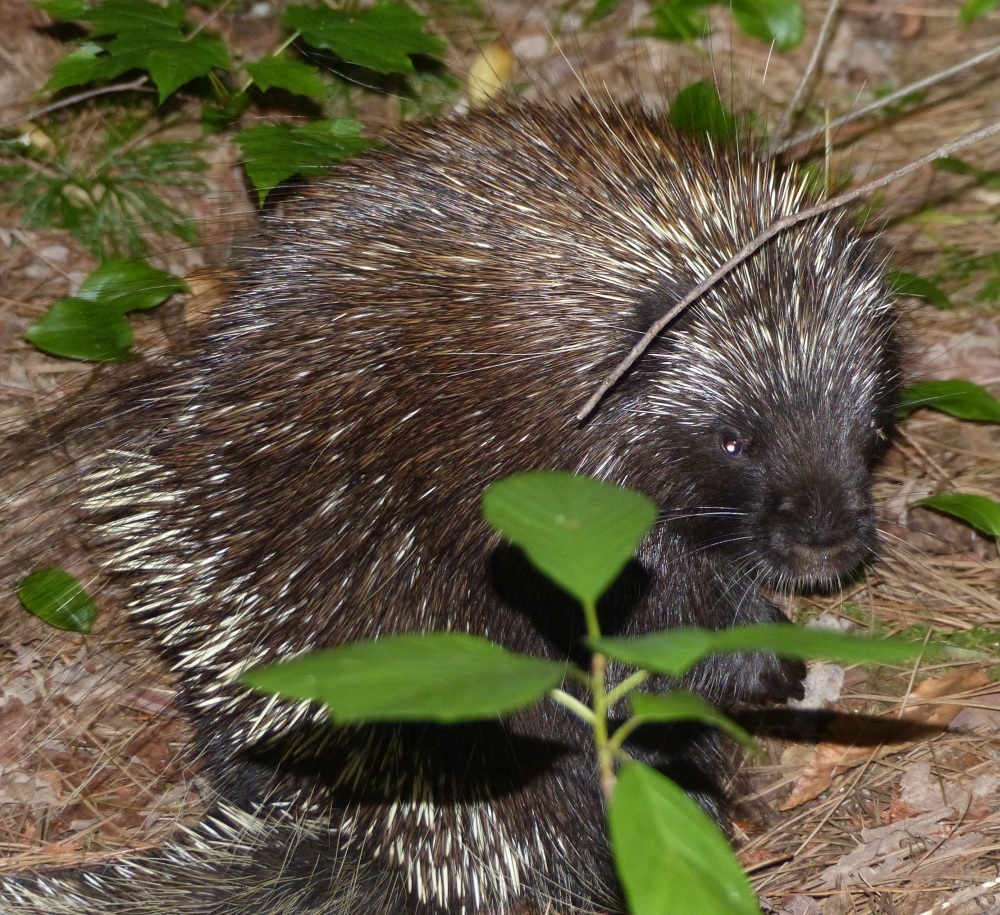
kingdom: Animalia
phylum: Chordata
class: Mammalia
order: Rodentia
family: Erethizontidae
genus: Erethizon
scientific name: Erethizon dorsatus
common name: North american porcupine
